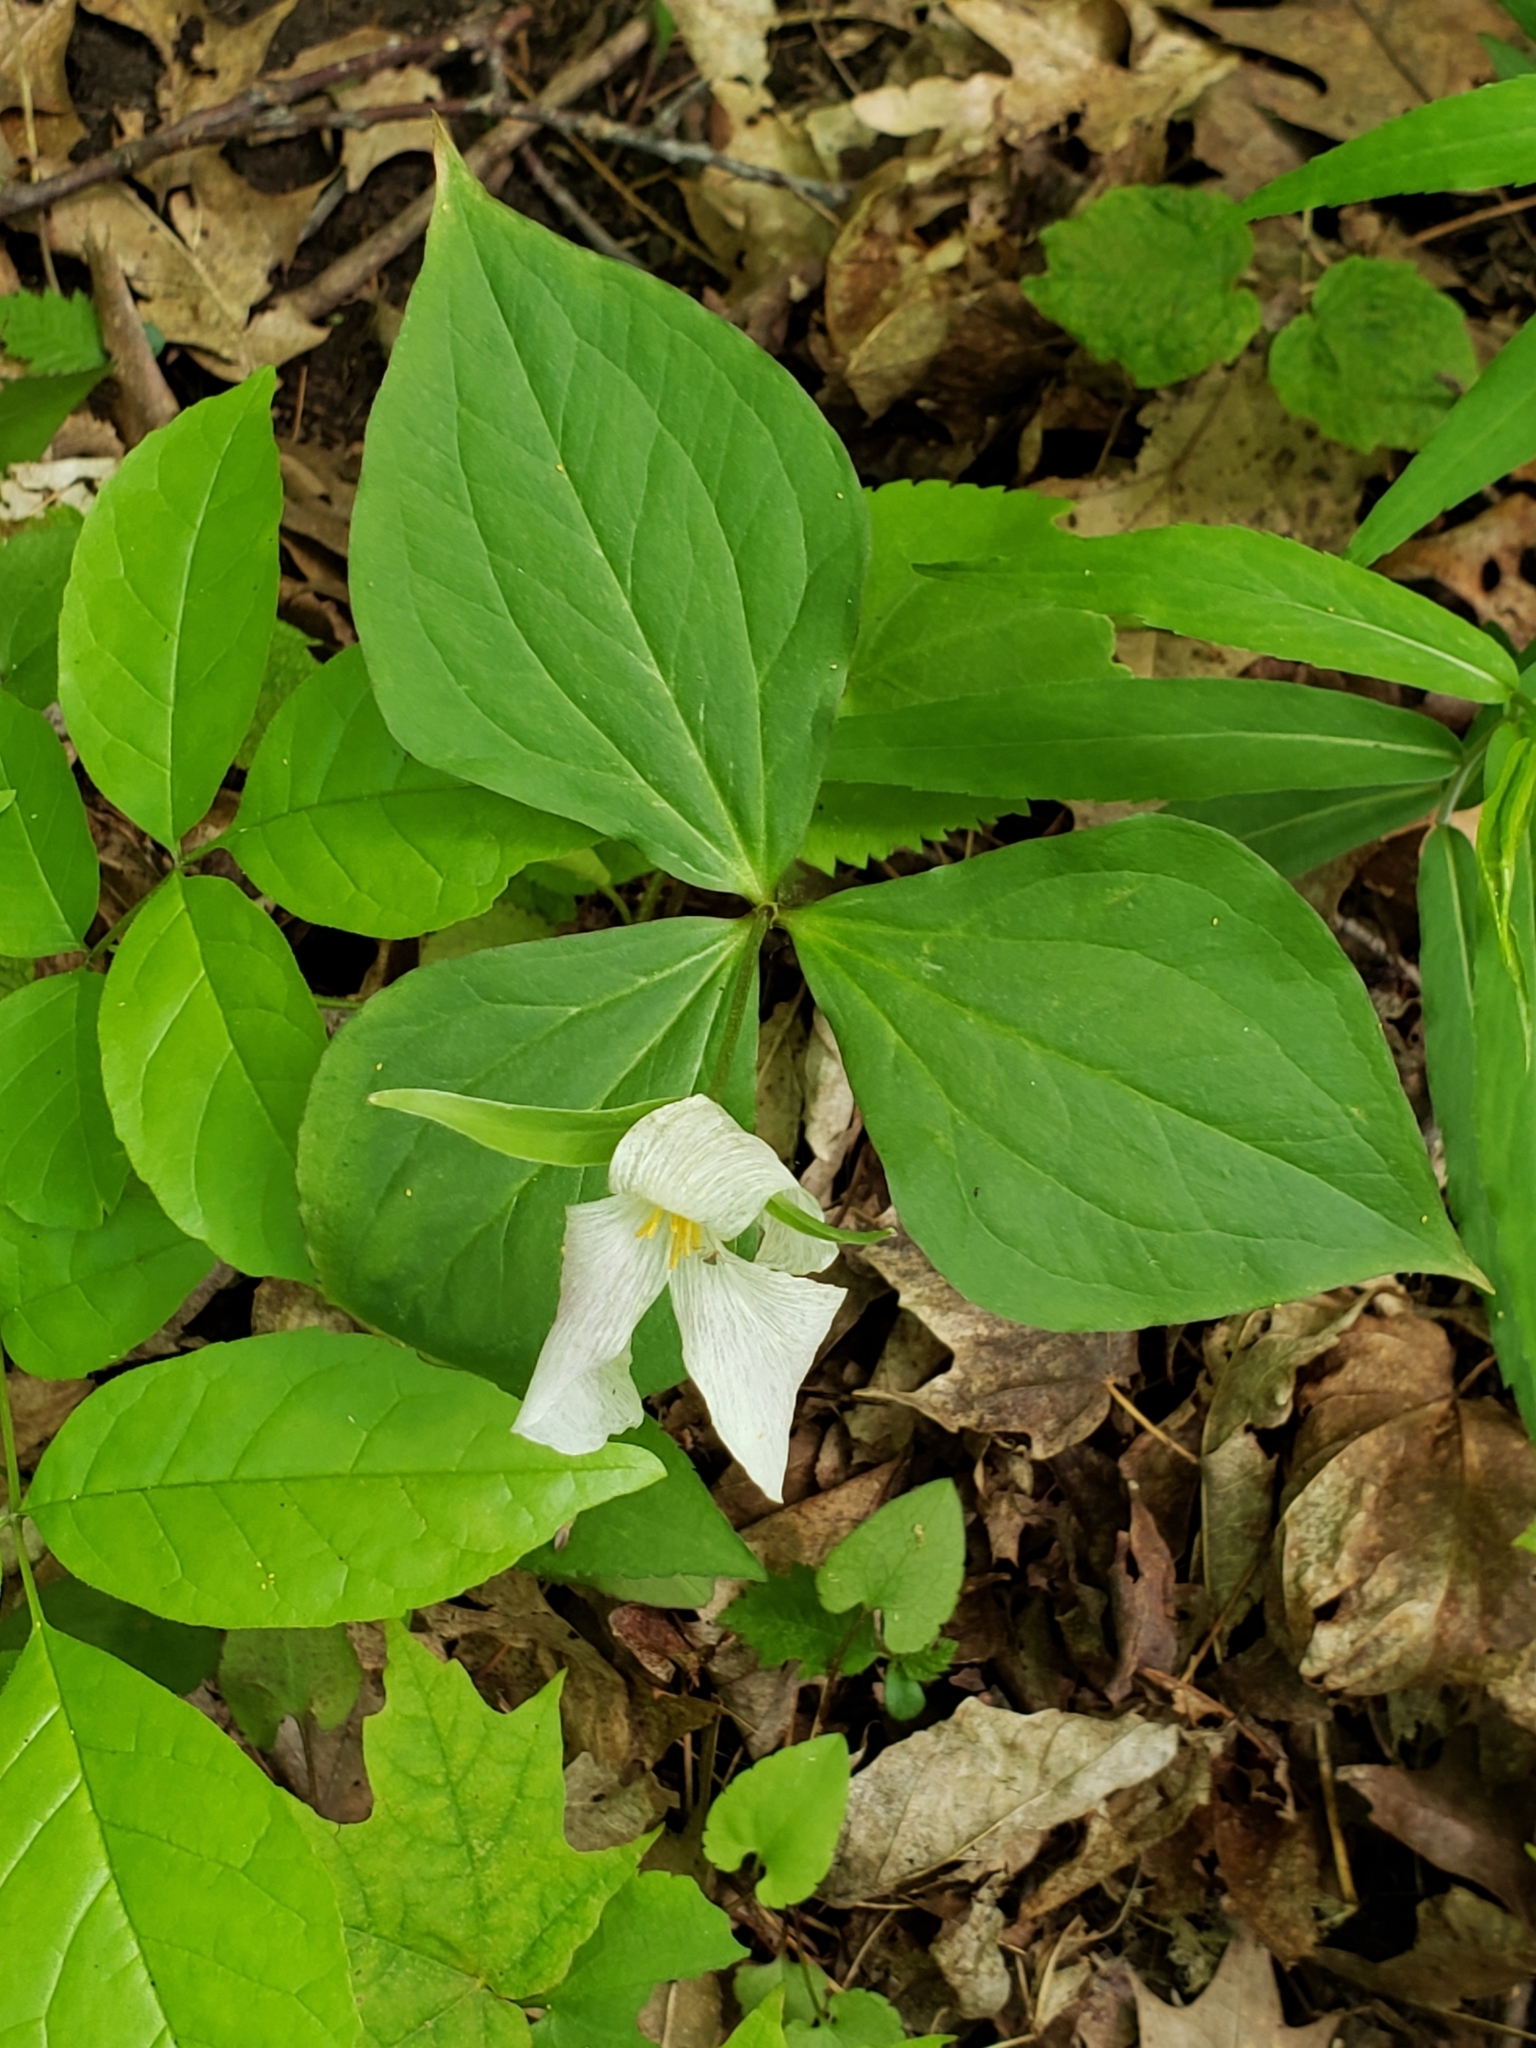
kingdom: Plantae
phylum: Tracheophyta
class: Liliopsida
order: Liliales
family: Melanthiaceae
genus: Trillium
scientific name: Trillium grandiflorum
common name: Great white trillium
